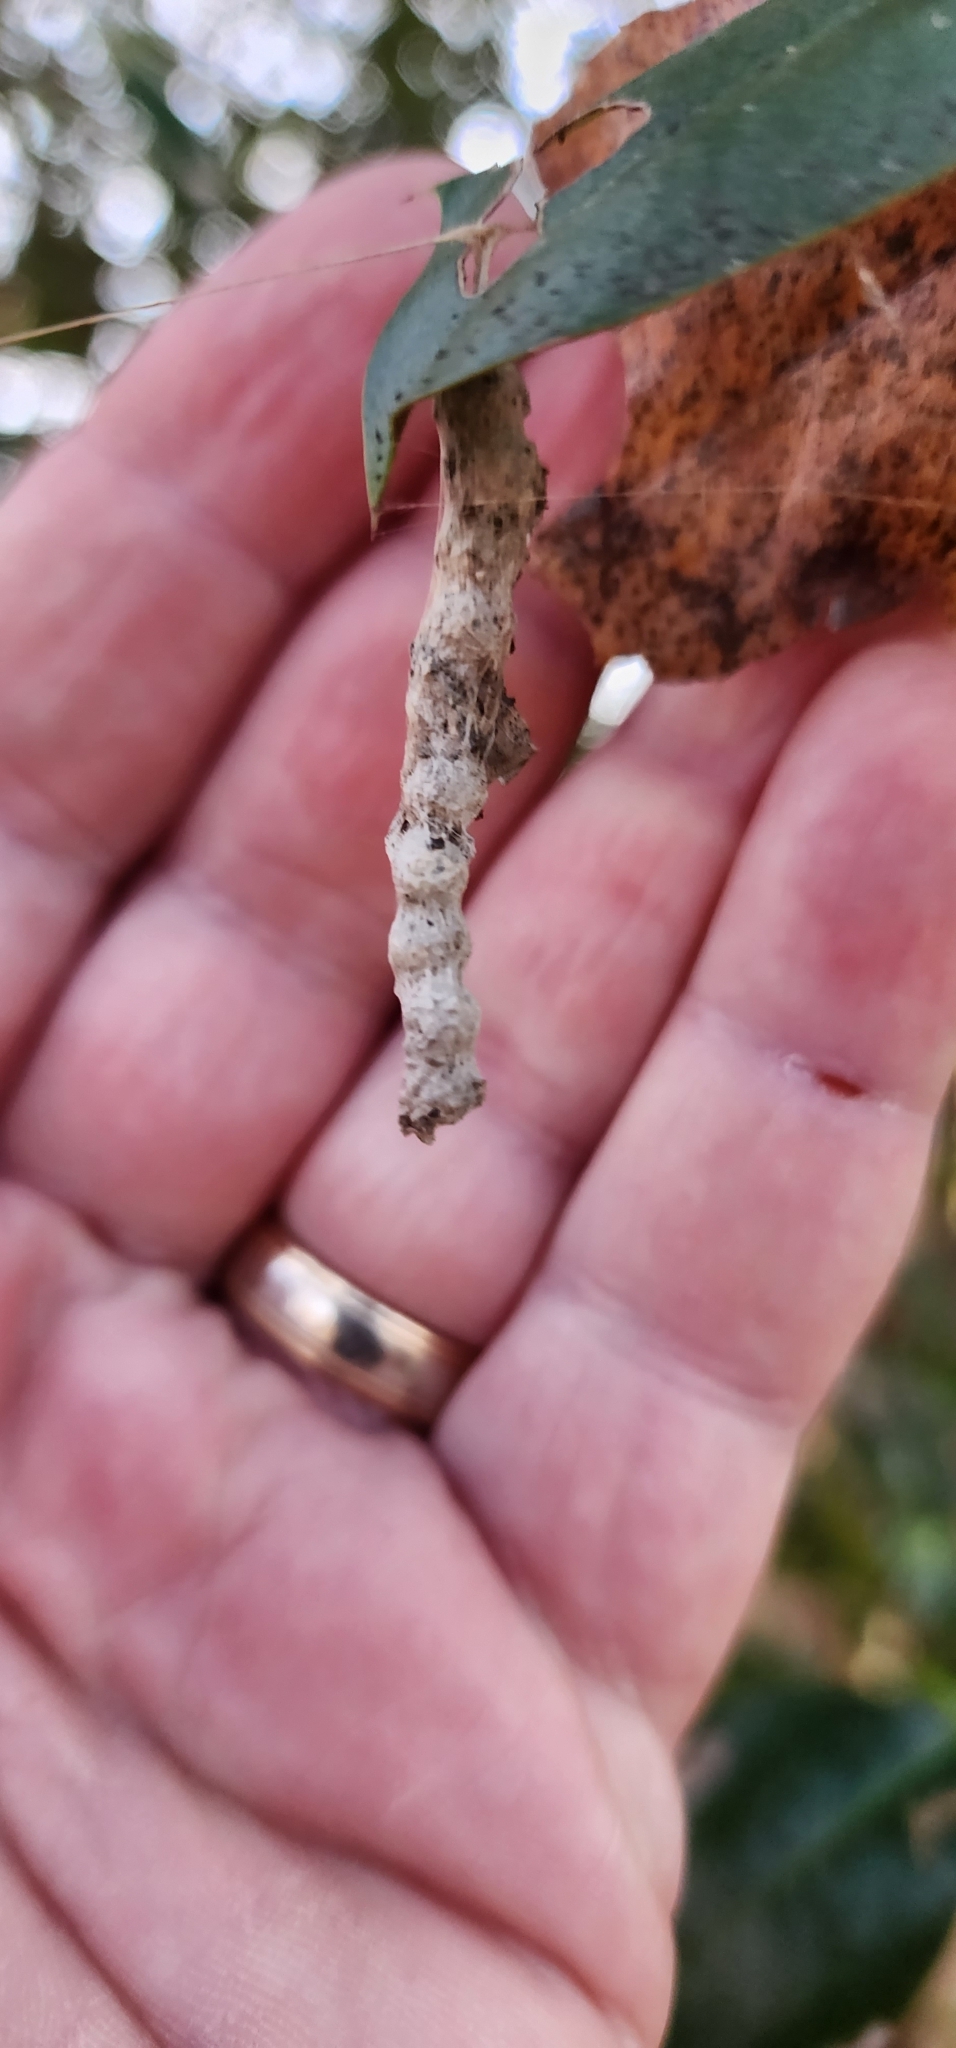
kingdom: Animalia
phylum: Arthropoda
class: Arachnida
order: Araneae
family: Araneidae
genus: Mecynogea
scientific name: Mecynogea lemniscata
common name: Orb weavers
